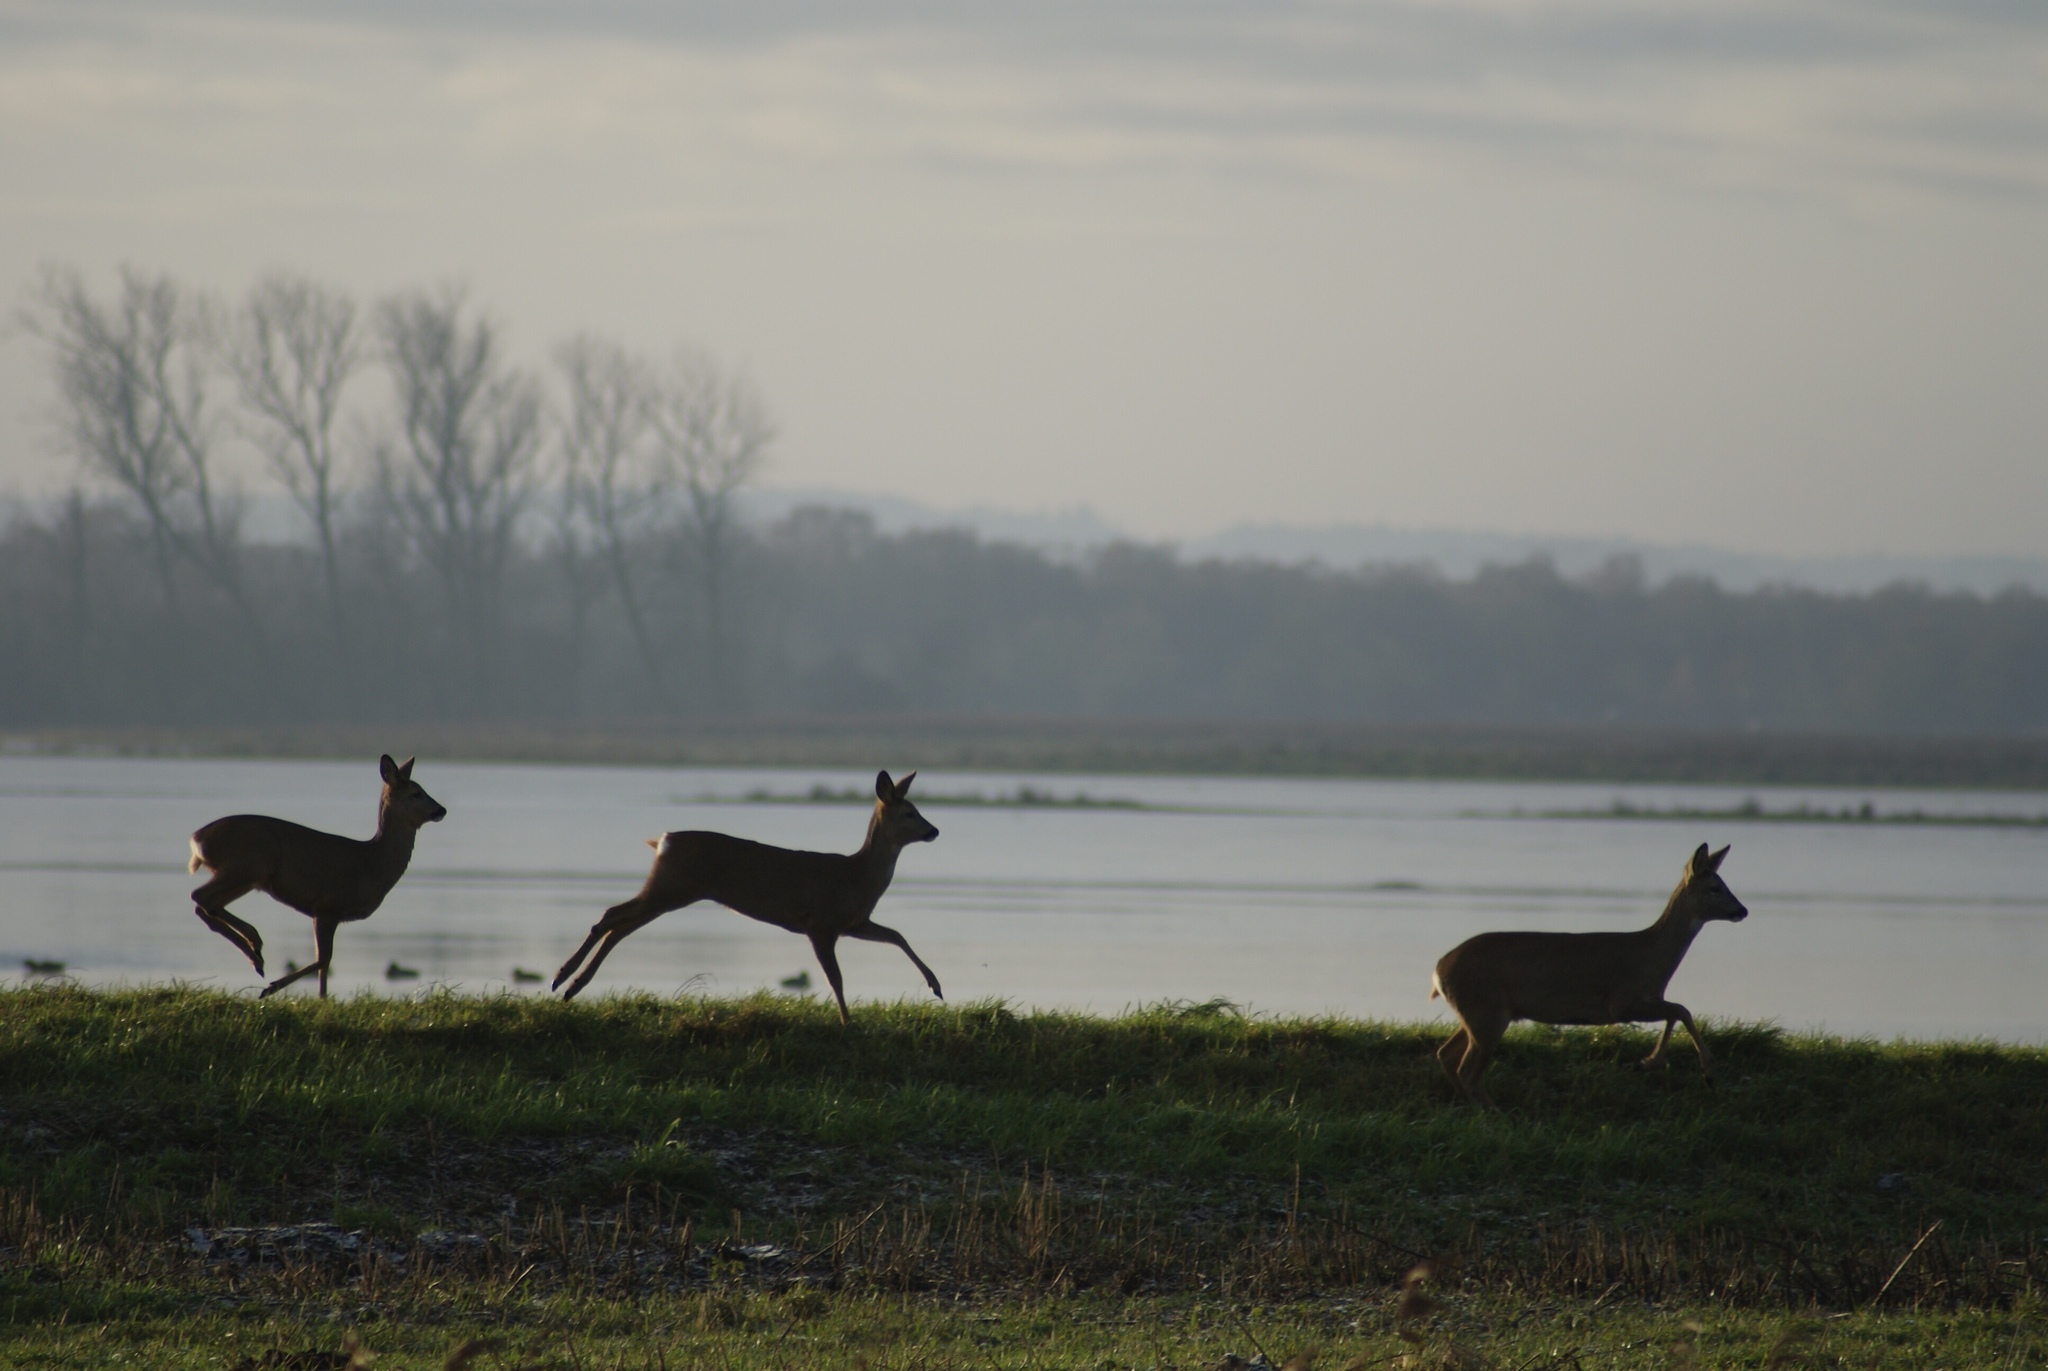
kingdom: Animalia
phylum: Chordata
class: Mammalia
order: Artiodactyla
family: Cervidae
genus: Capreolus
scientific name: Capreolus capreolus
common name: Western roe deer
